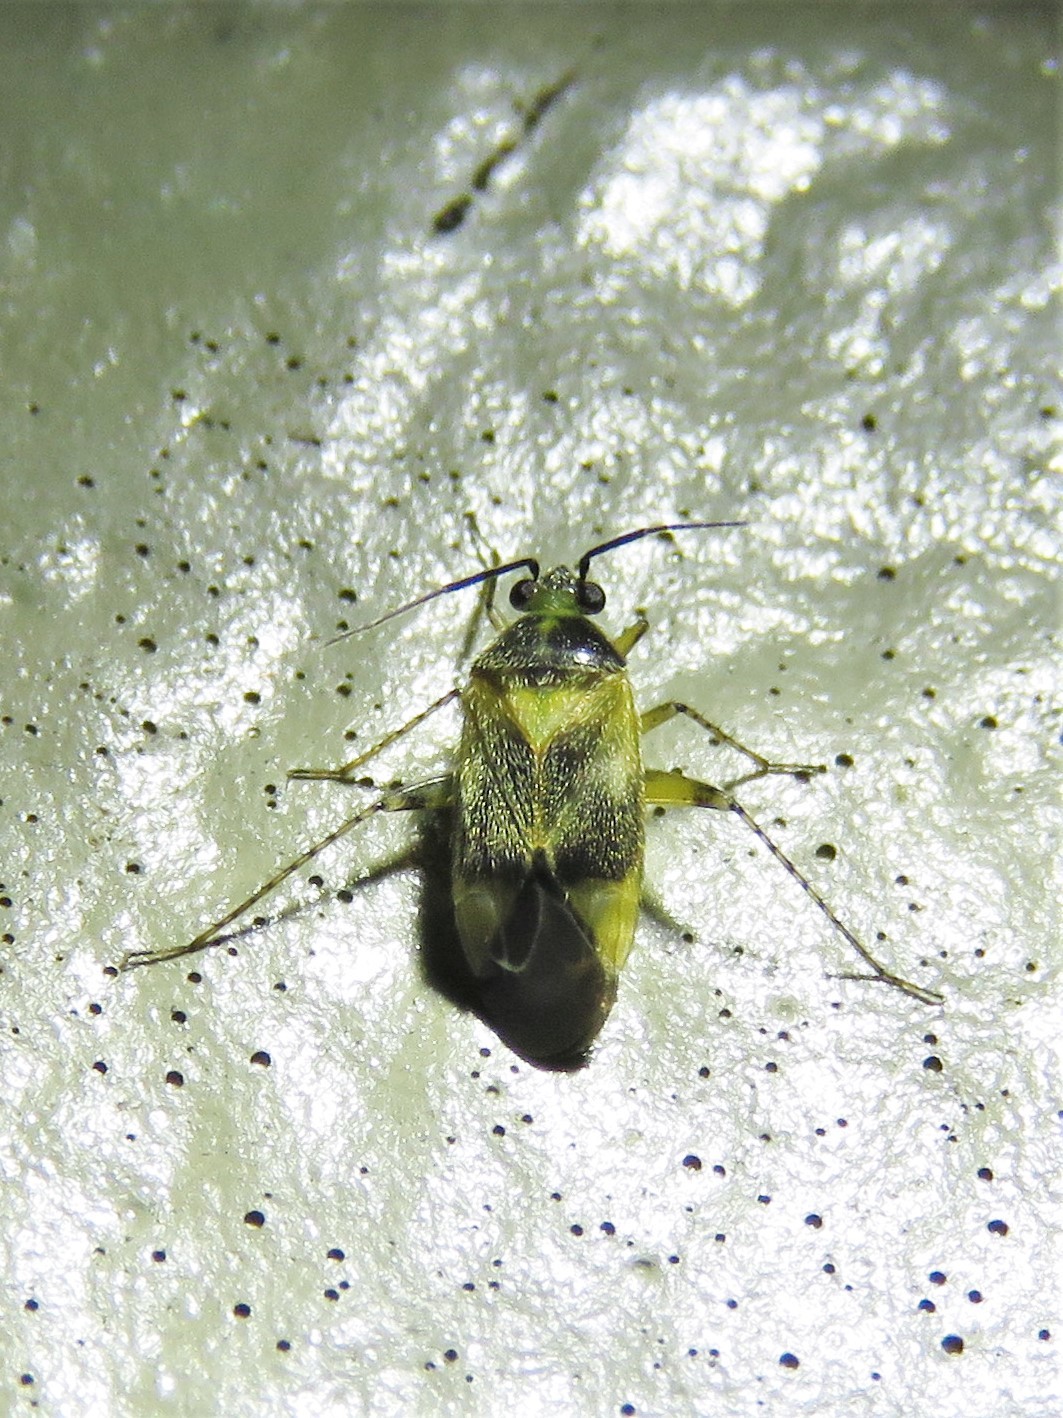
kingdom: Animalia
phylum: Arthropoda
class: Insecta
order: Hemiptera
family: Miridae
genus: Plagiognathus
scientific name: Plagiognathus blatchleyi
